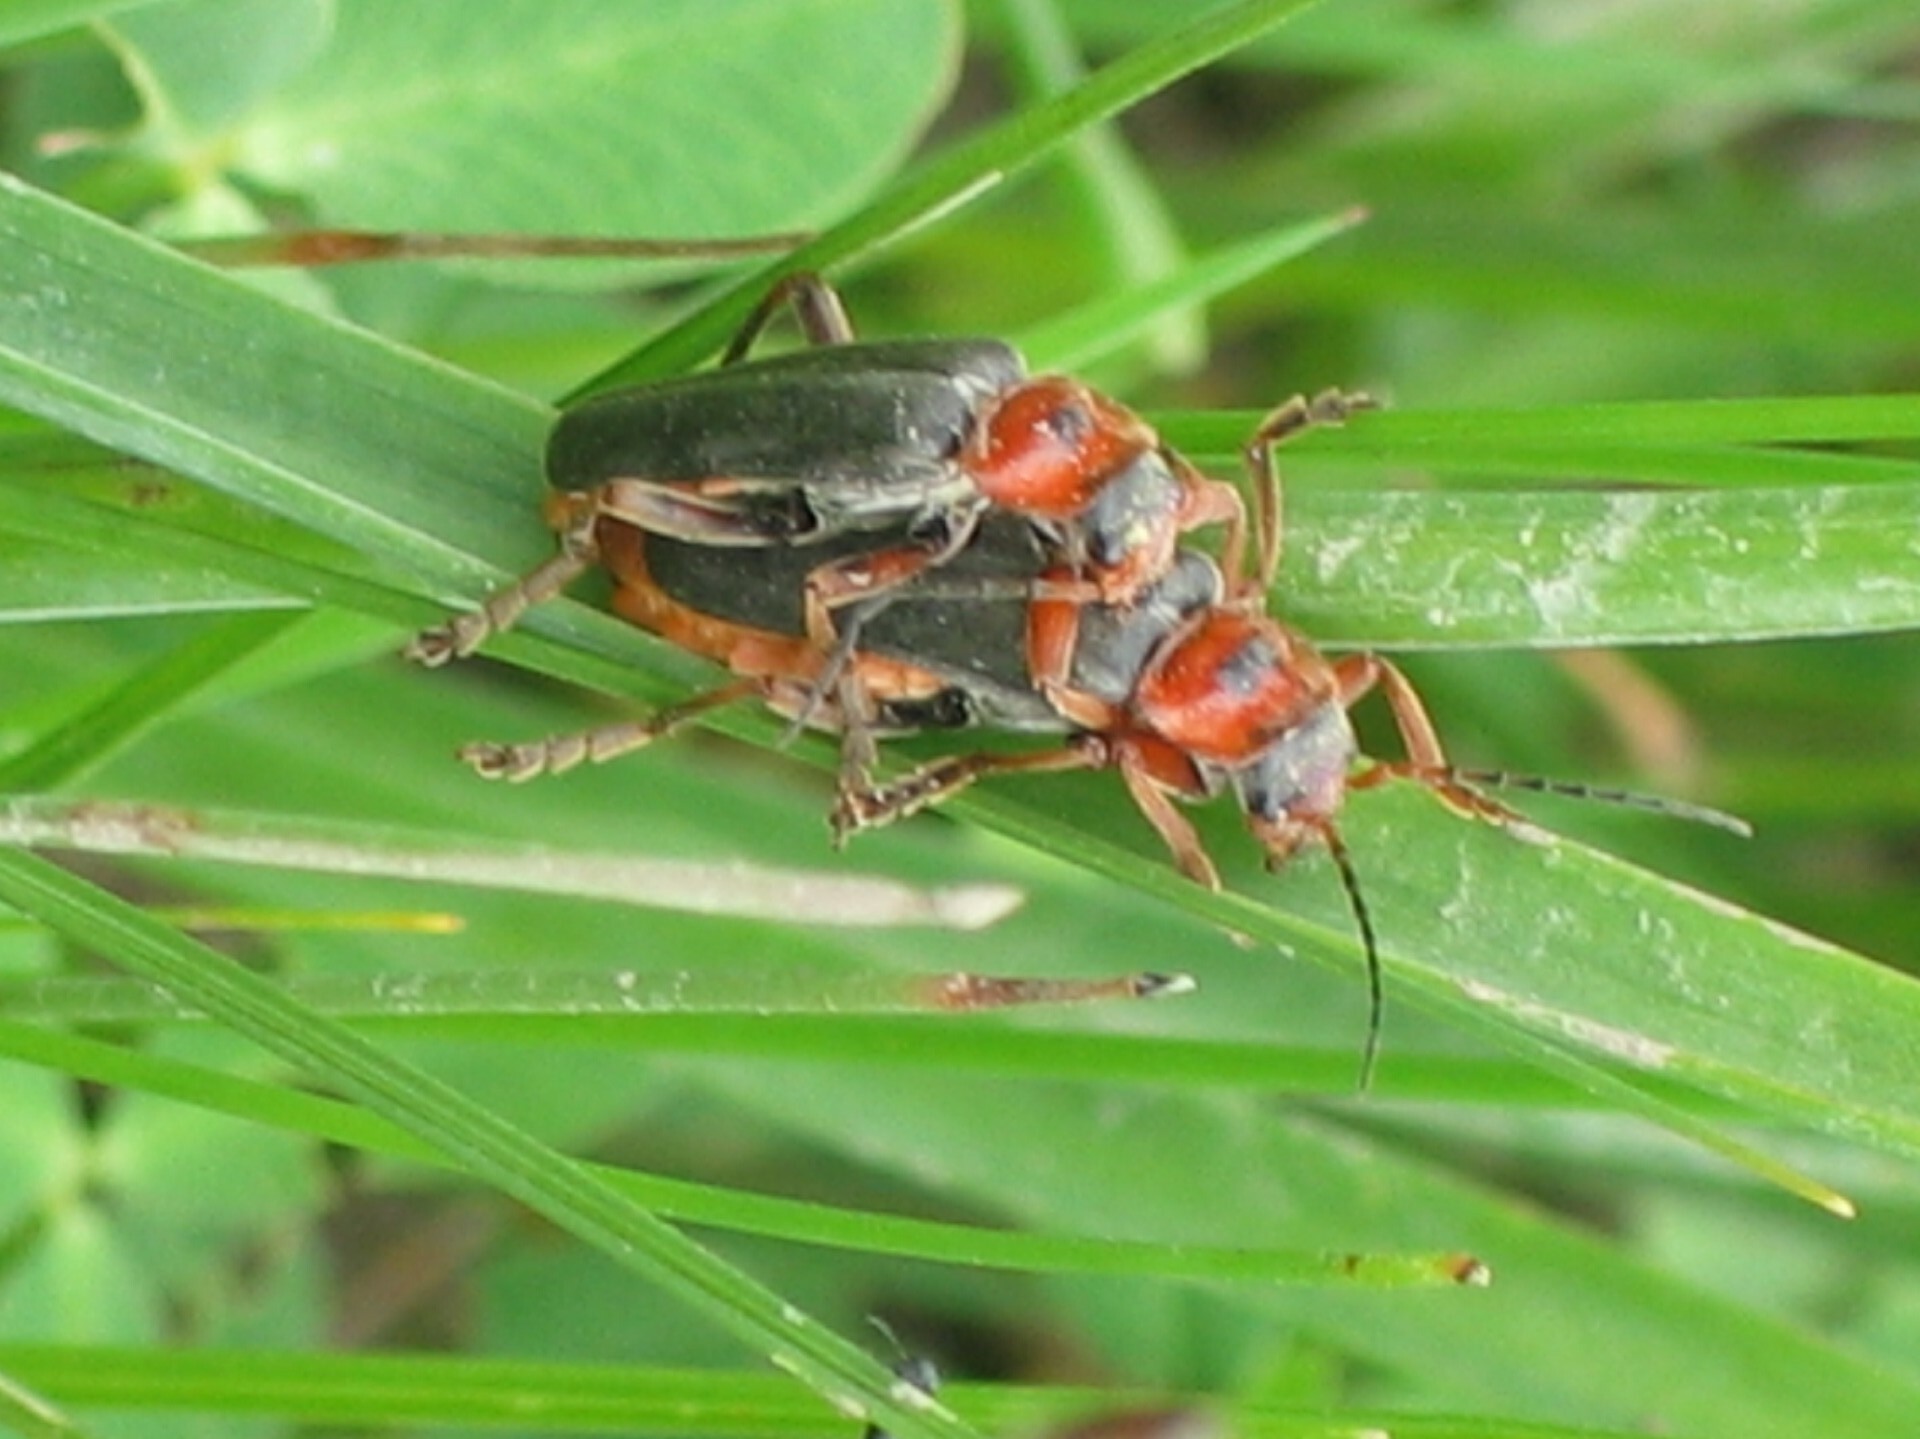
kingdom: Animalia
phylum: Arthropoda
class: Insecta
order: Coleoptera
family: Cantharidae
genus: Cantharis
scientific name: Cantharis annularis
